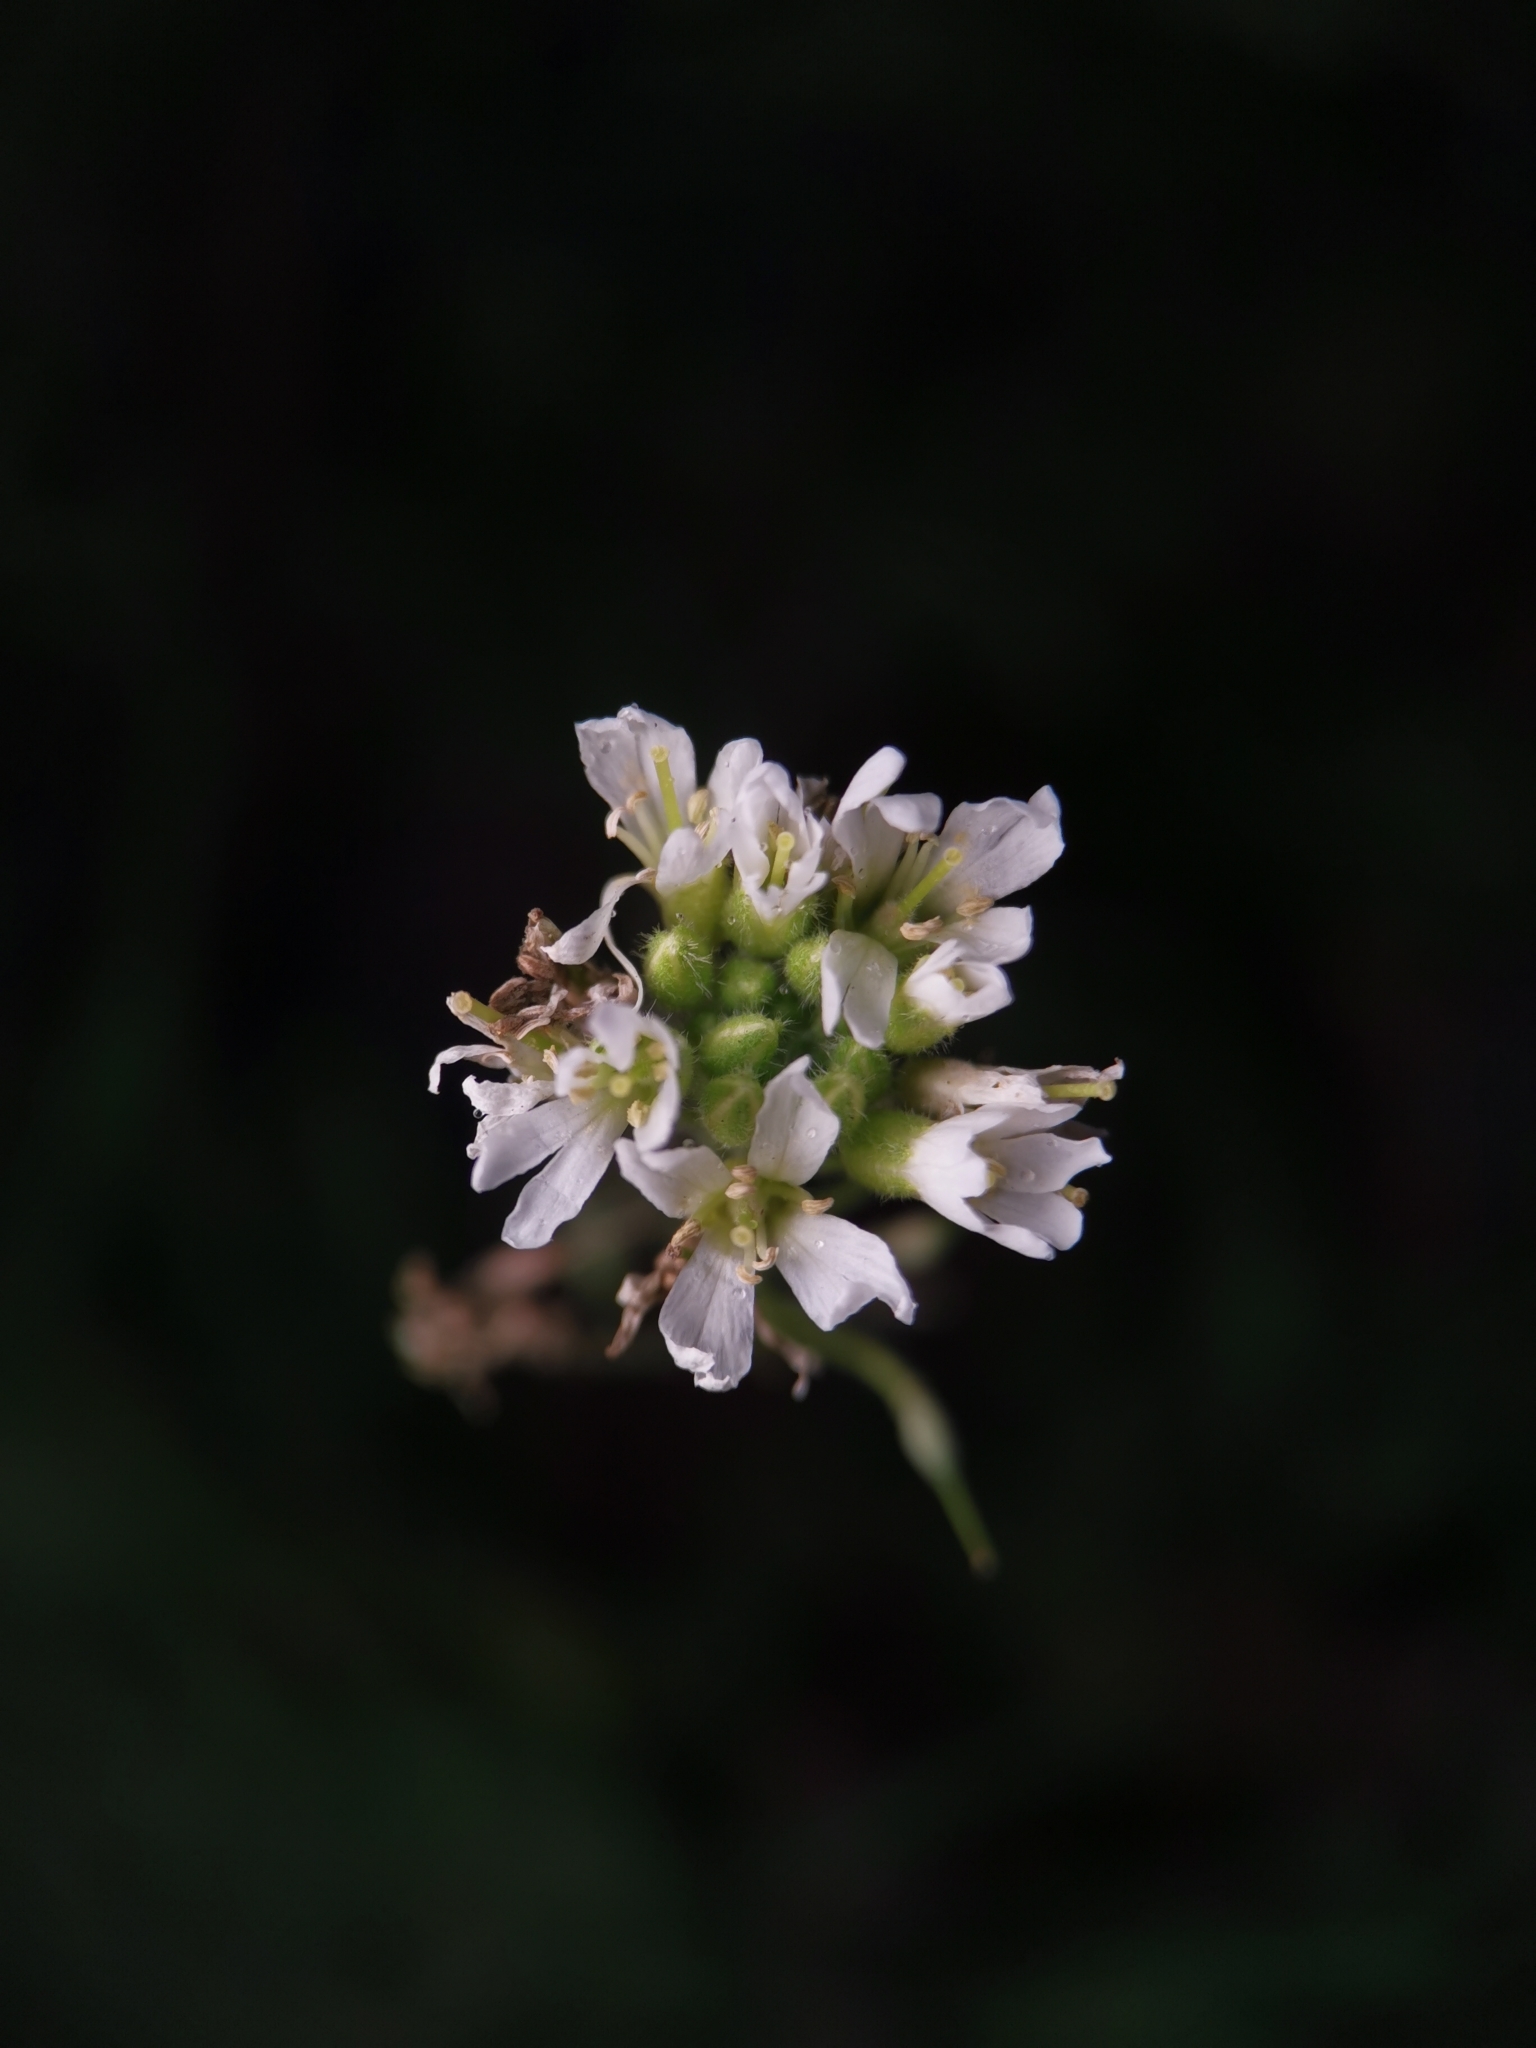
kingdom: Plantae
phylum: Tracheophyta
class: Magnoliopsida
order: Brassicales
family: Brassicaceae
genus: Berteroa
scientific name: Berteroa incana
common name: Hoary alison
